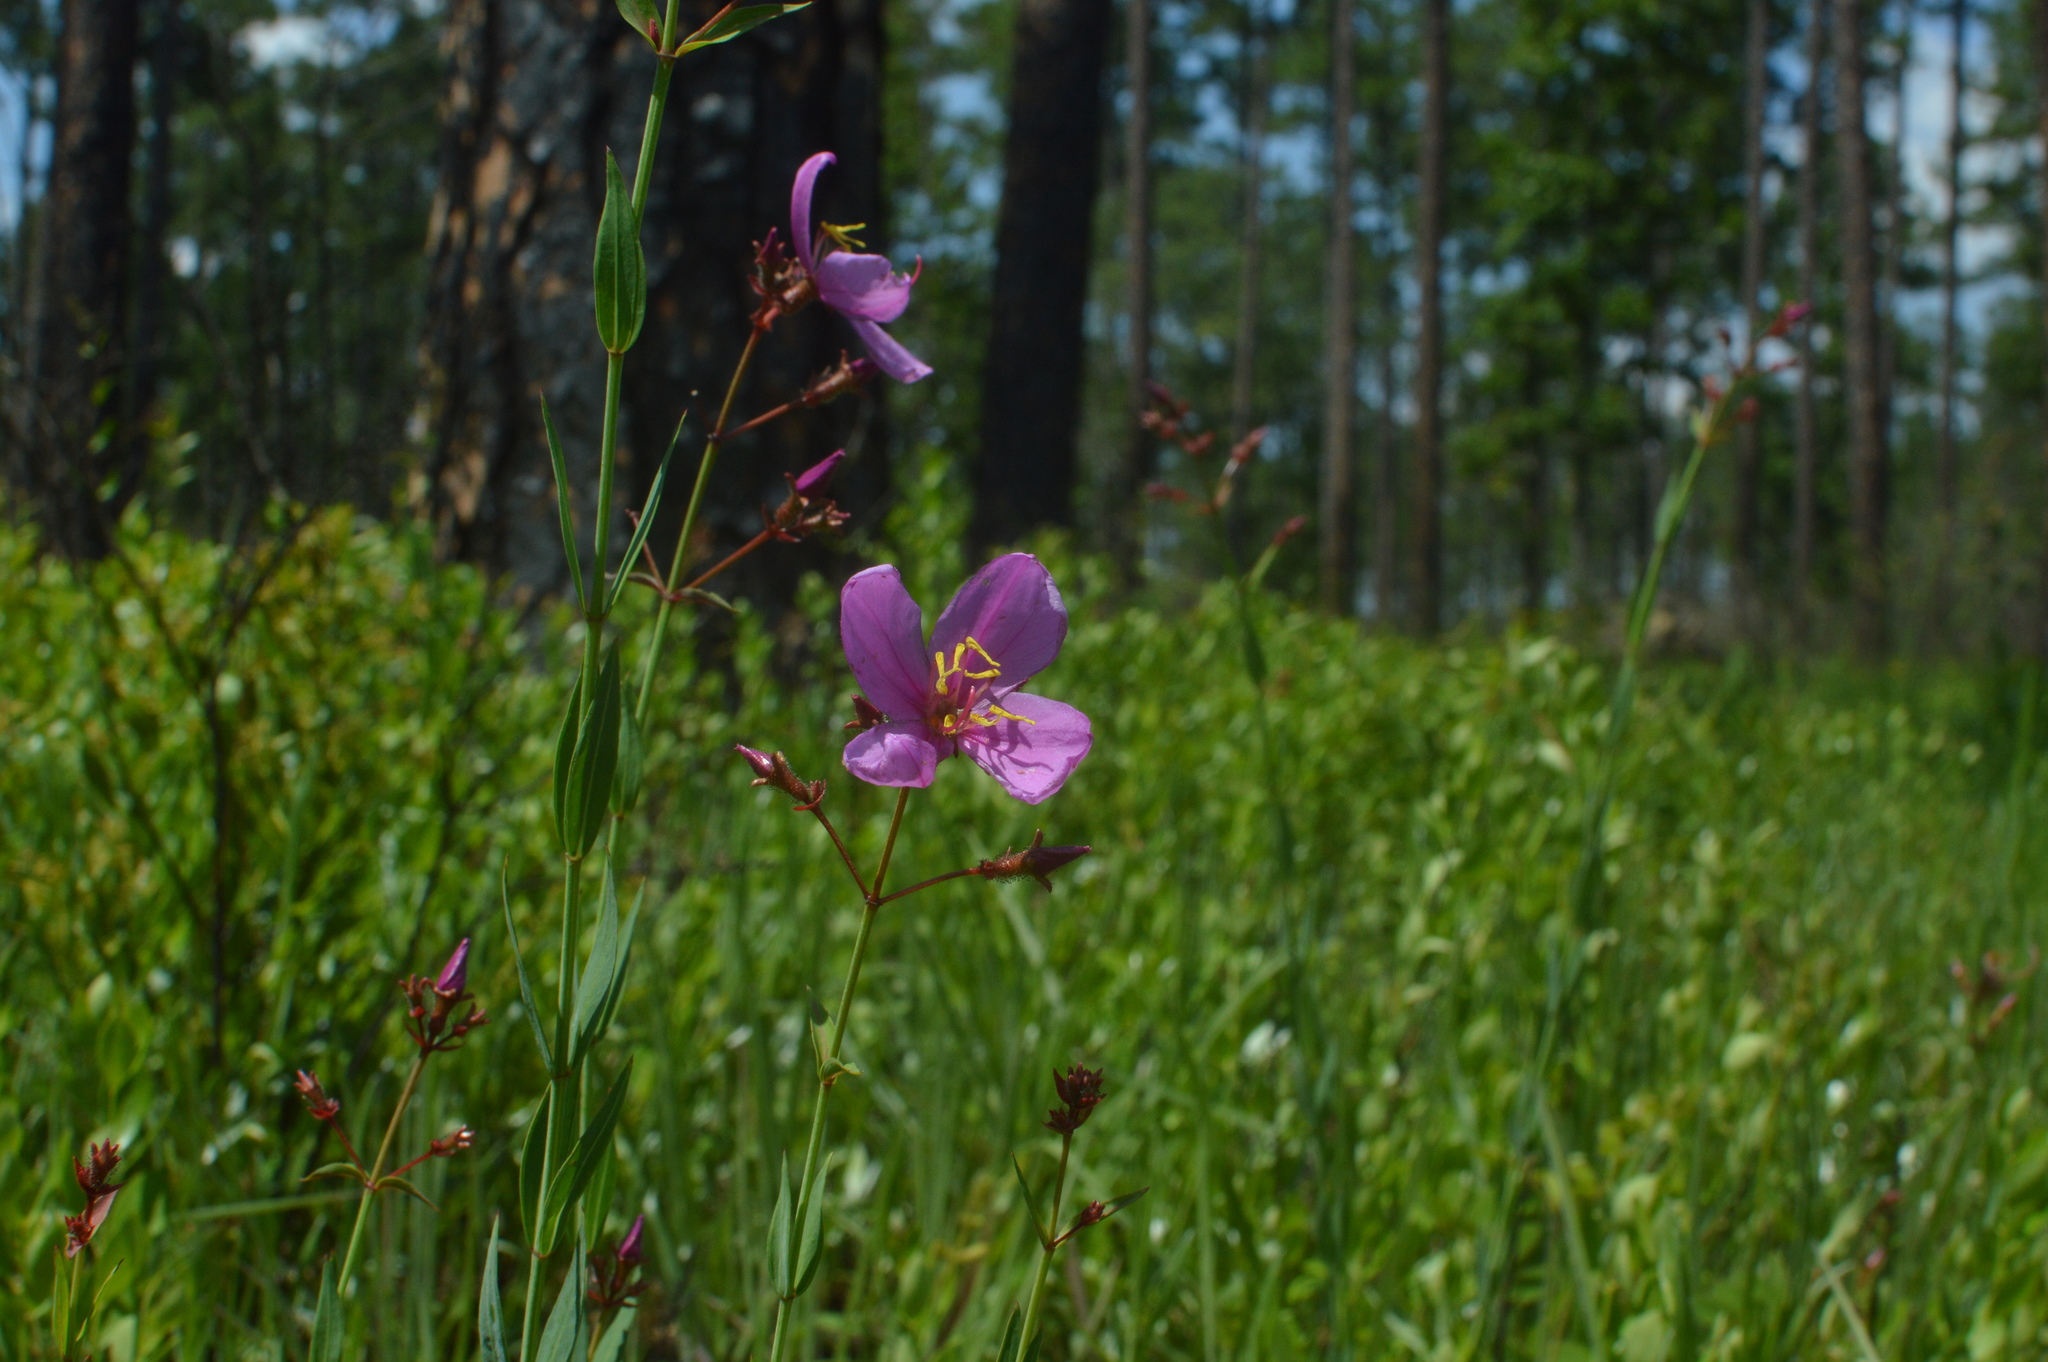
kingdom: Plantae
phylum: Tracheophyta
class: Magnoliopsida
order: Myrtales
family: Melastomataceae
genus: Rhexia
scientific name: Rhexia alifanus
